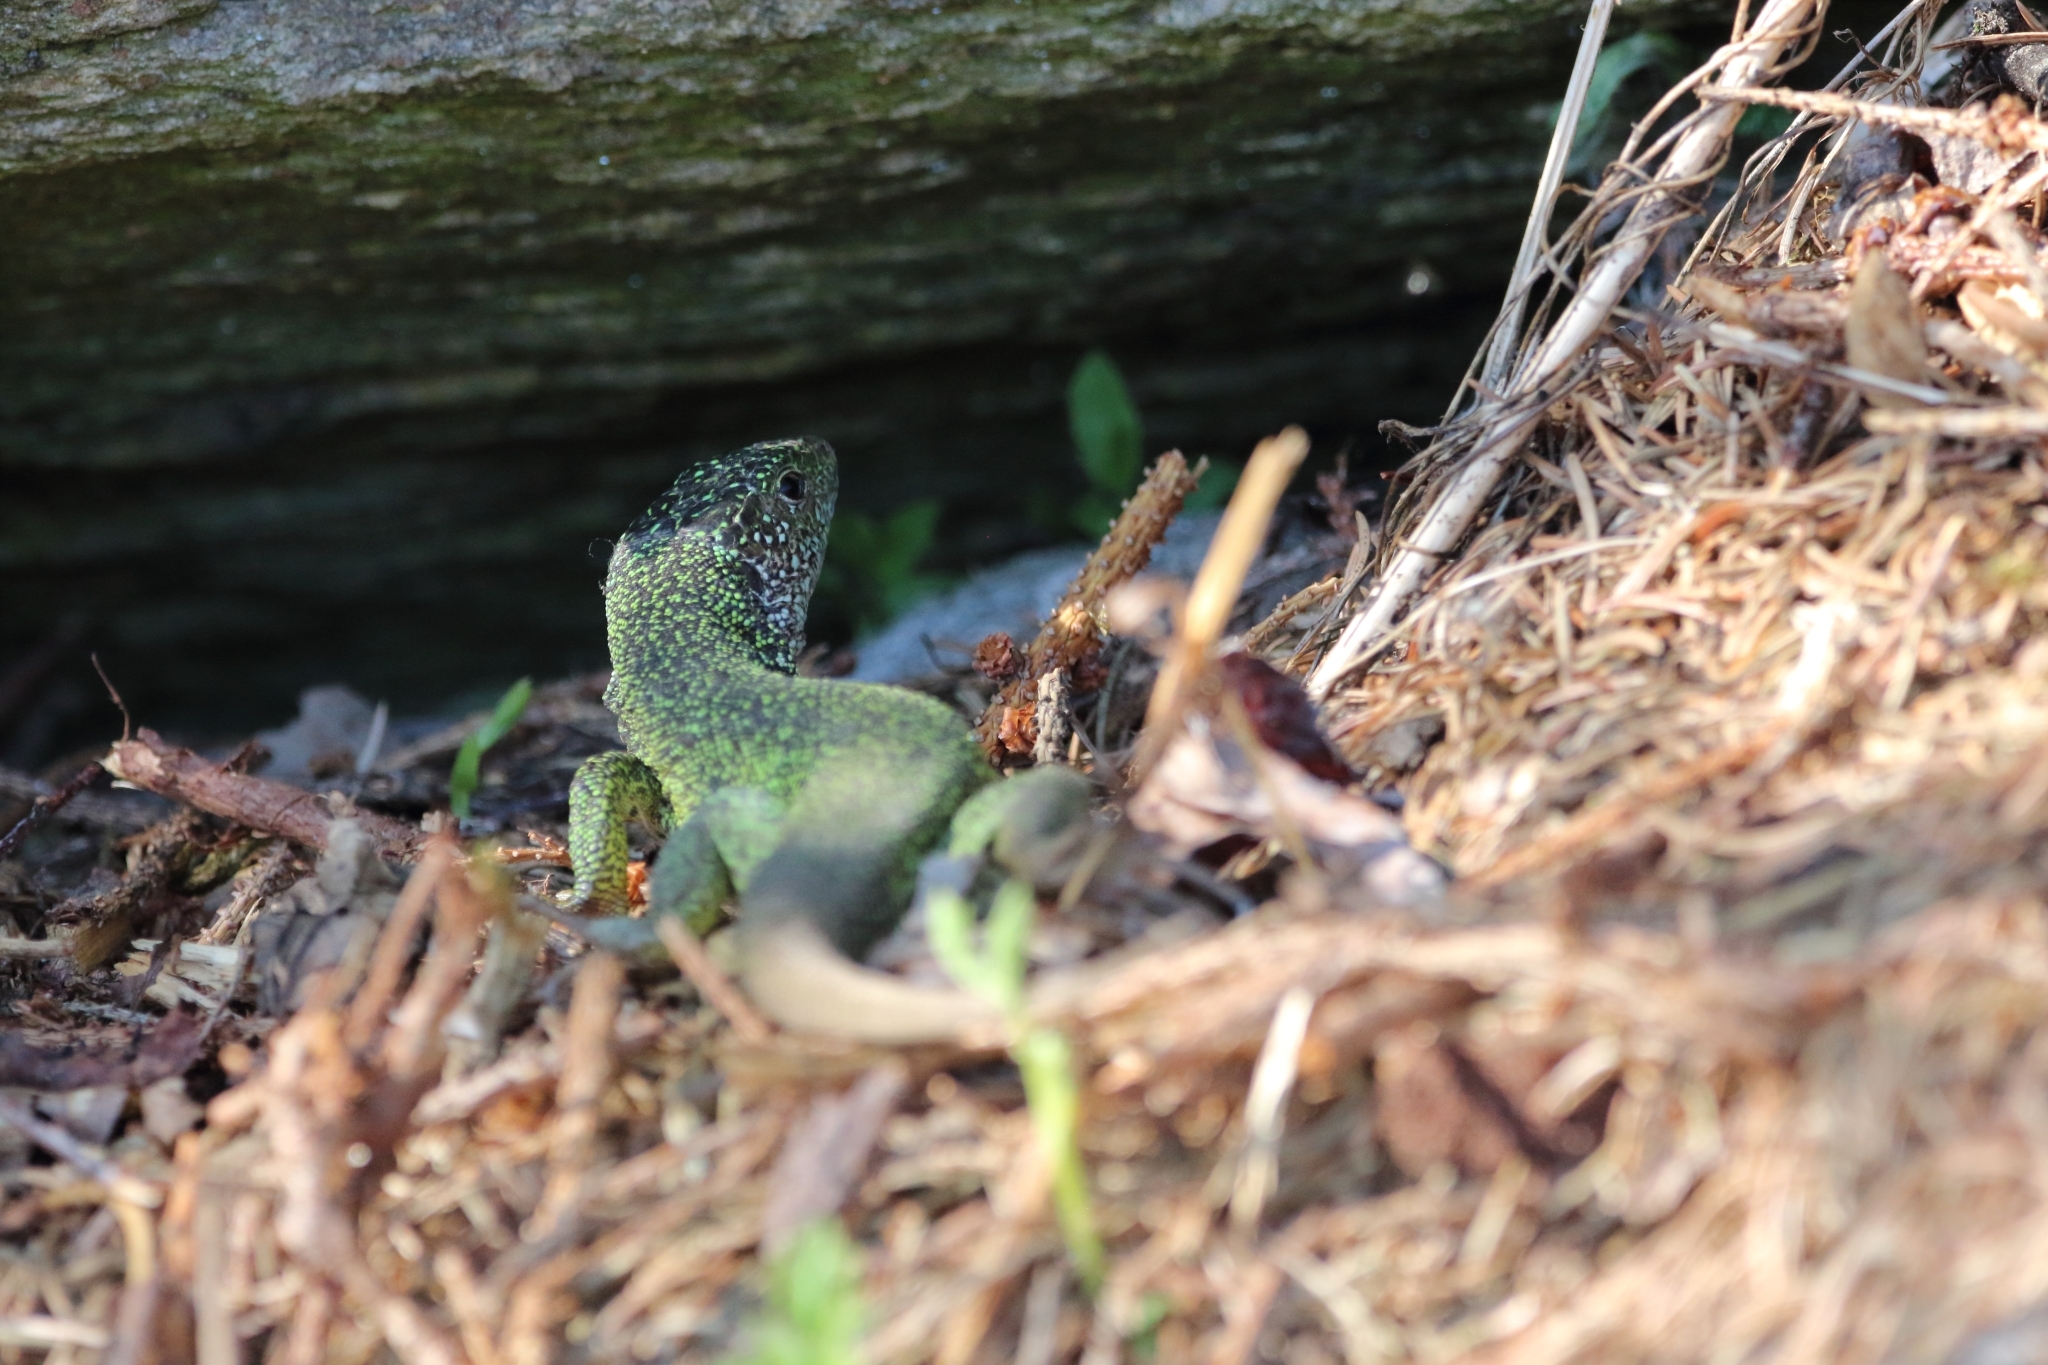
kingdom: Animalia
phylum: Chordata
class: Squamata
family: Lacertidae
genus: Lacerta
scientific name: Lacerta viridis
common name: European green lizard
